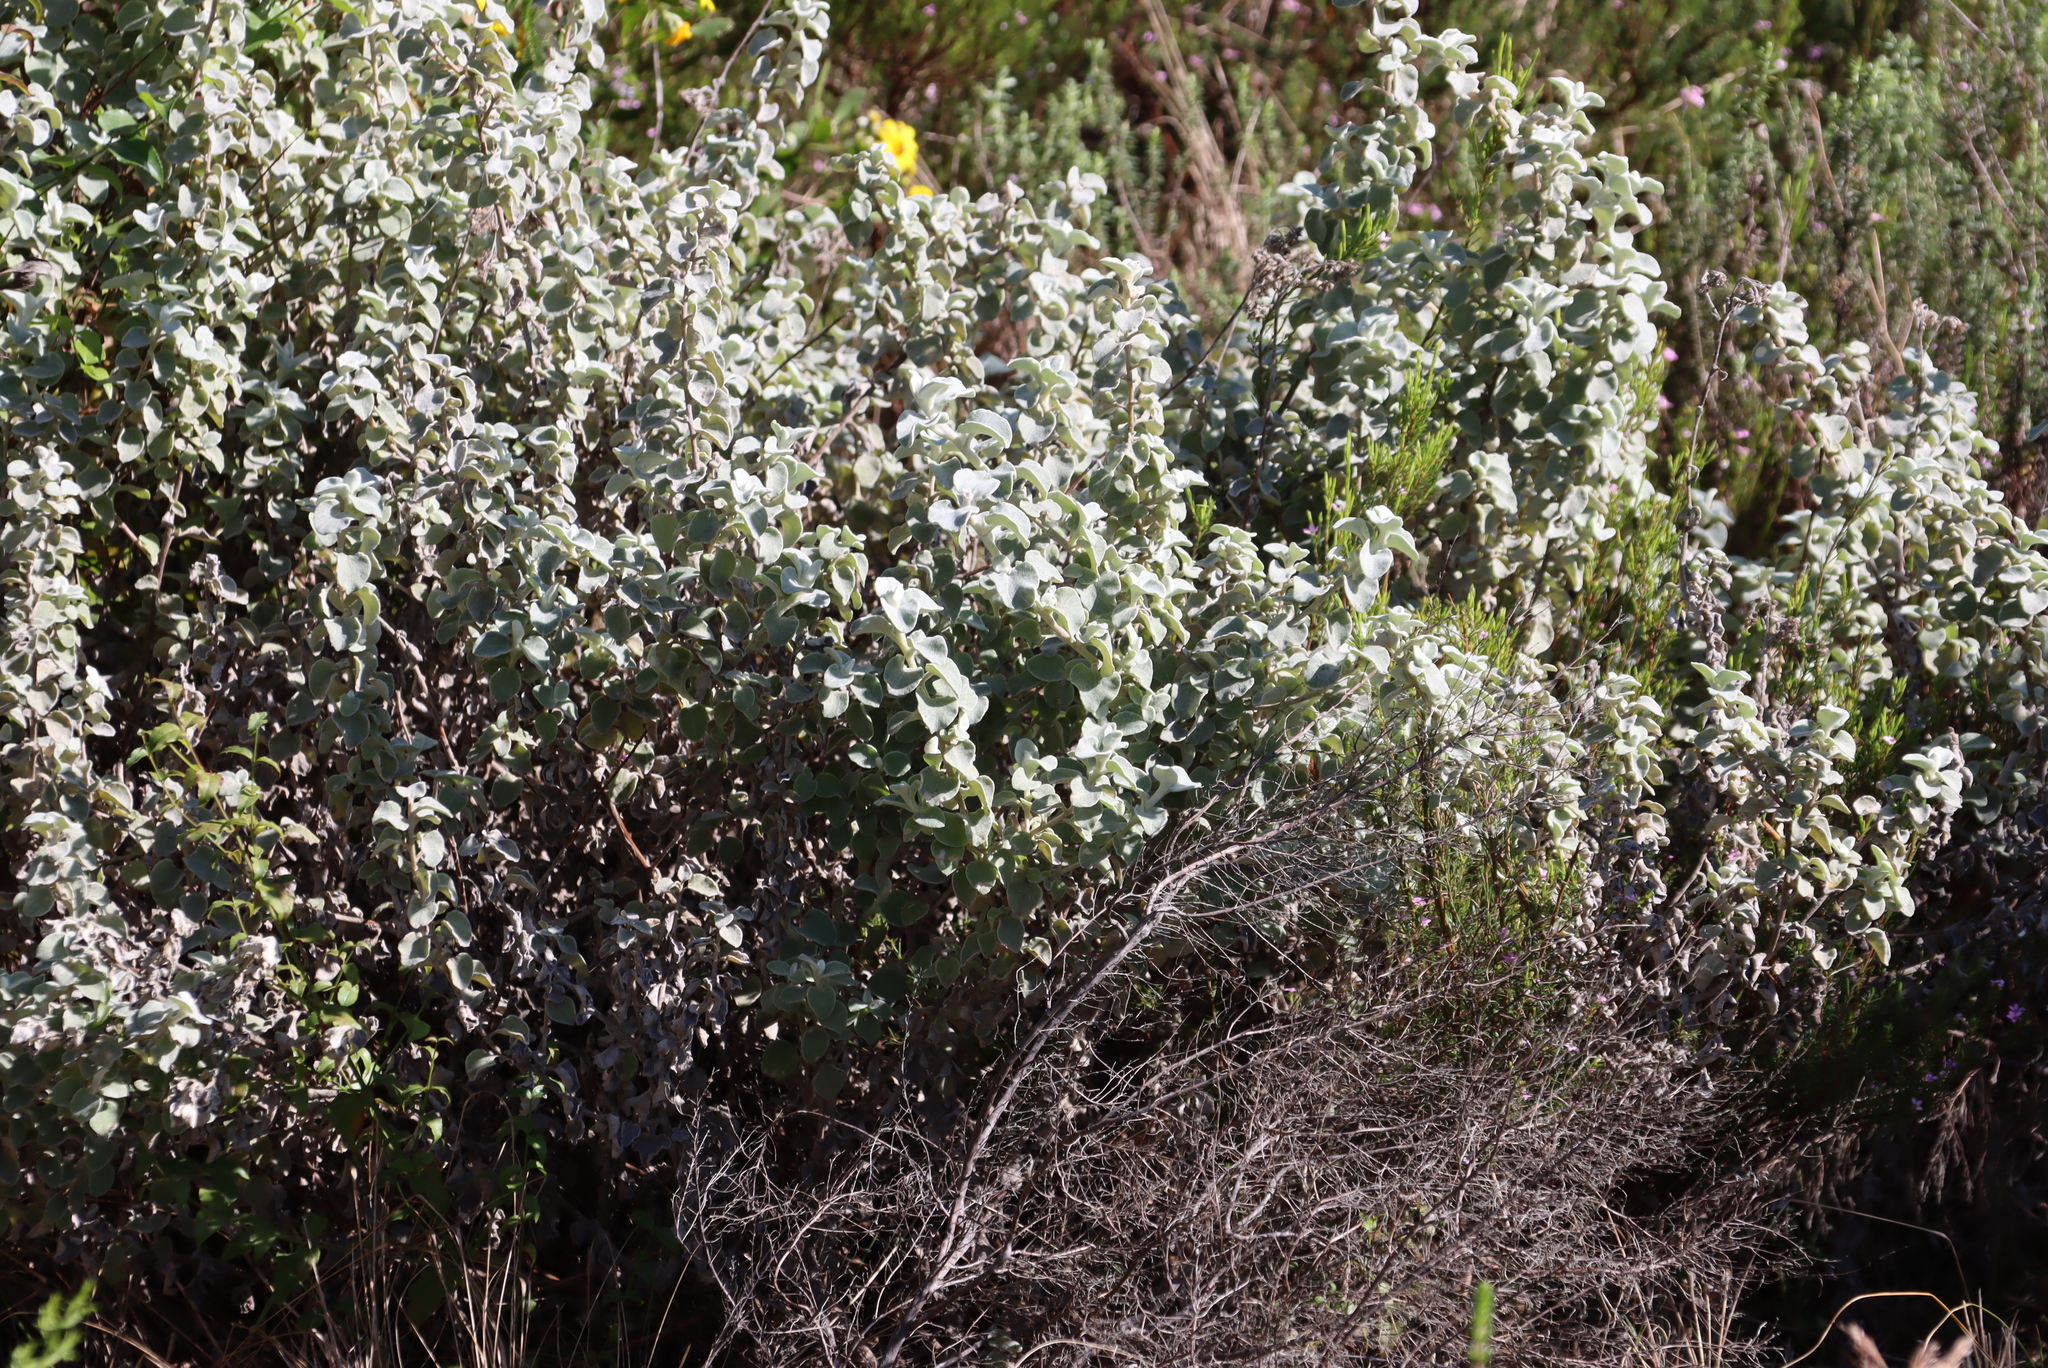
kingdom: Plantae
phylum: Tracheophyta
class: Magnoliopsida
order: Asterales
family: Asteraceae
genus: Helichrysum
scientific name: Helichrysum petiolare
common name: Licorice-plant
